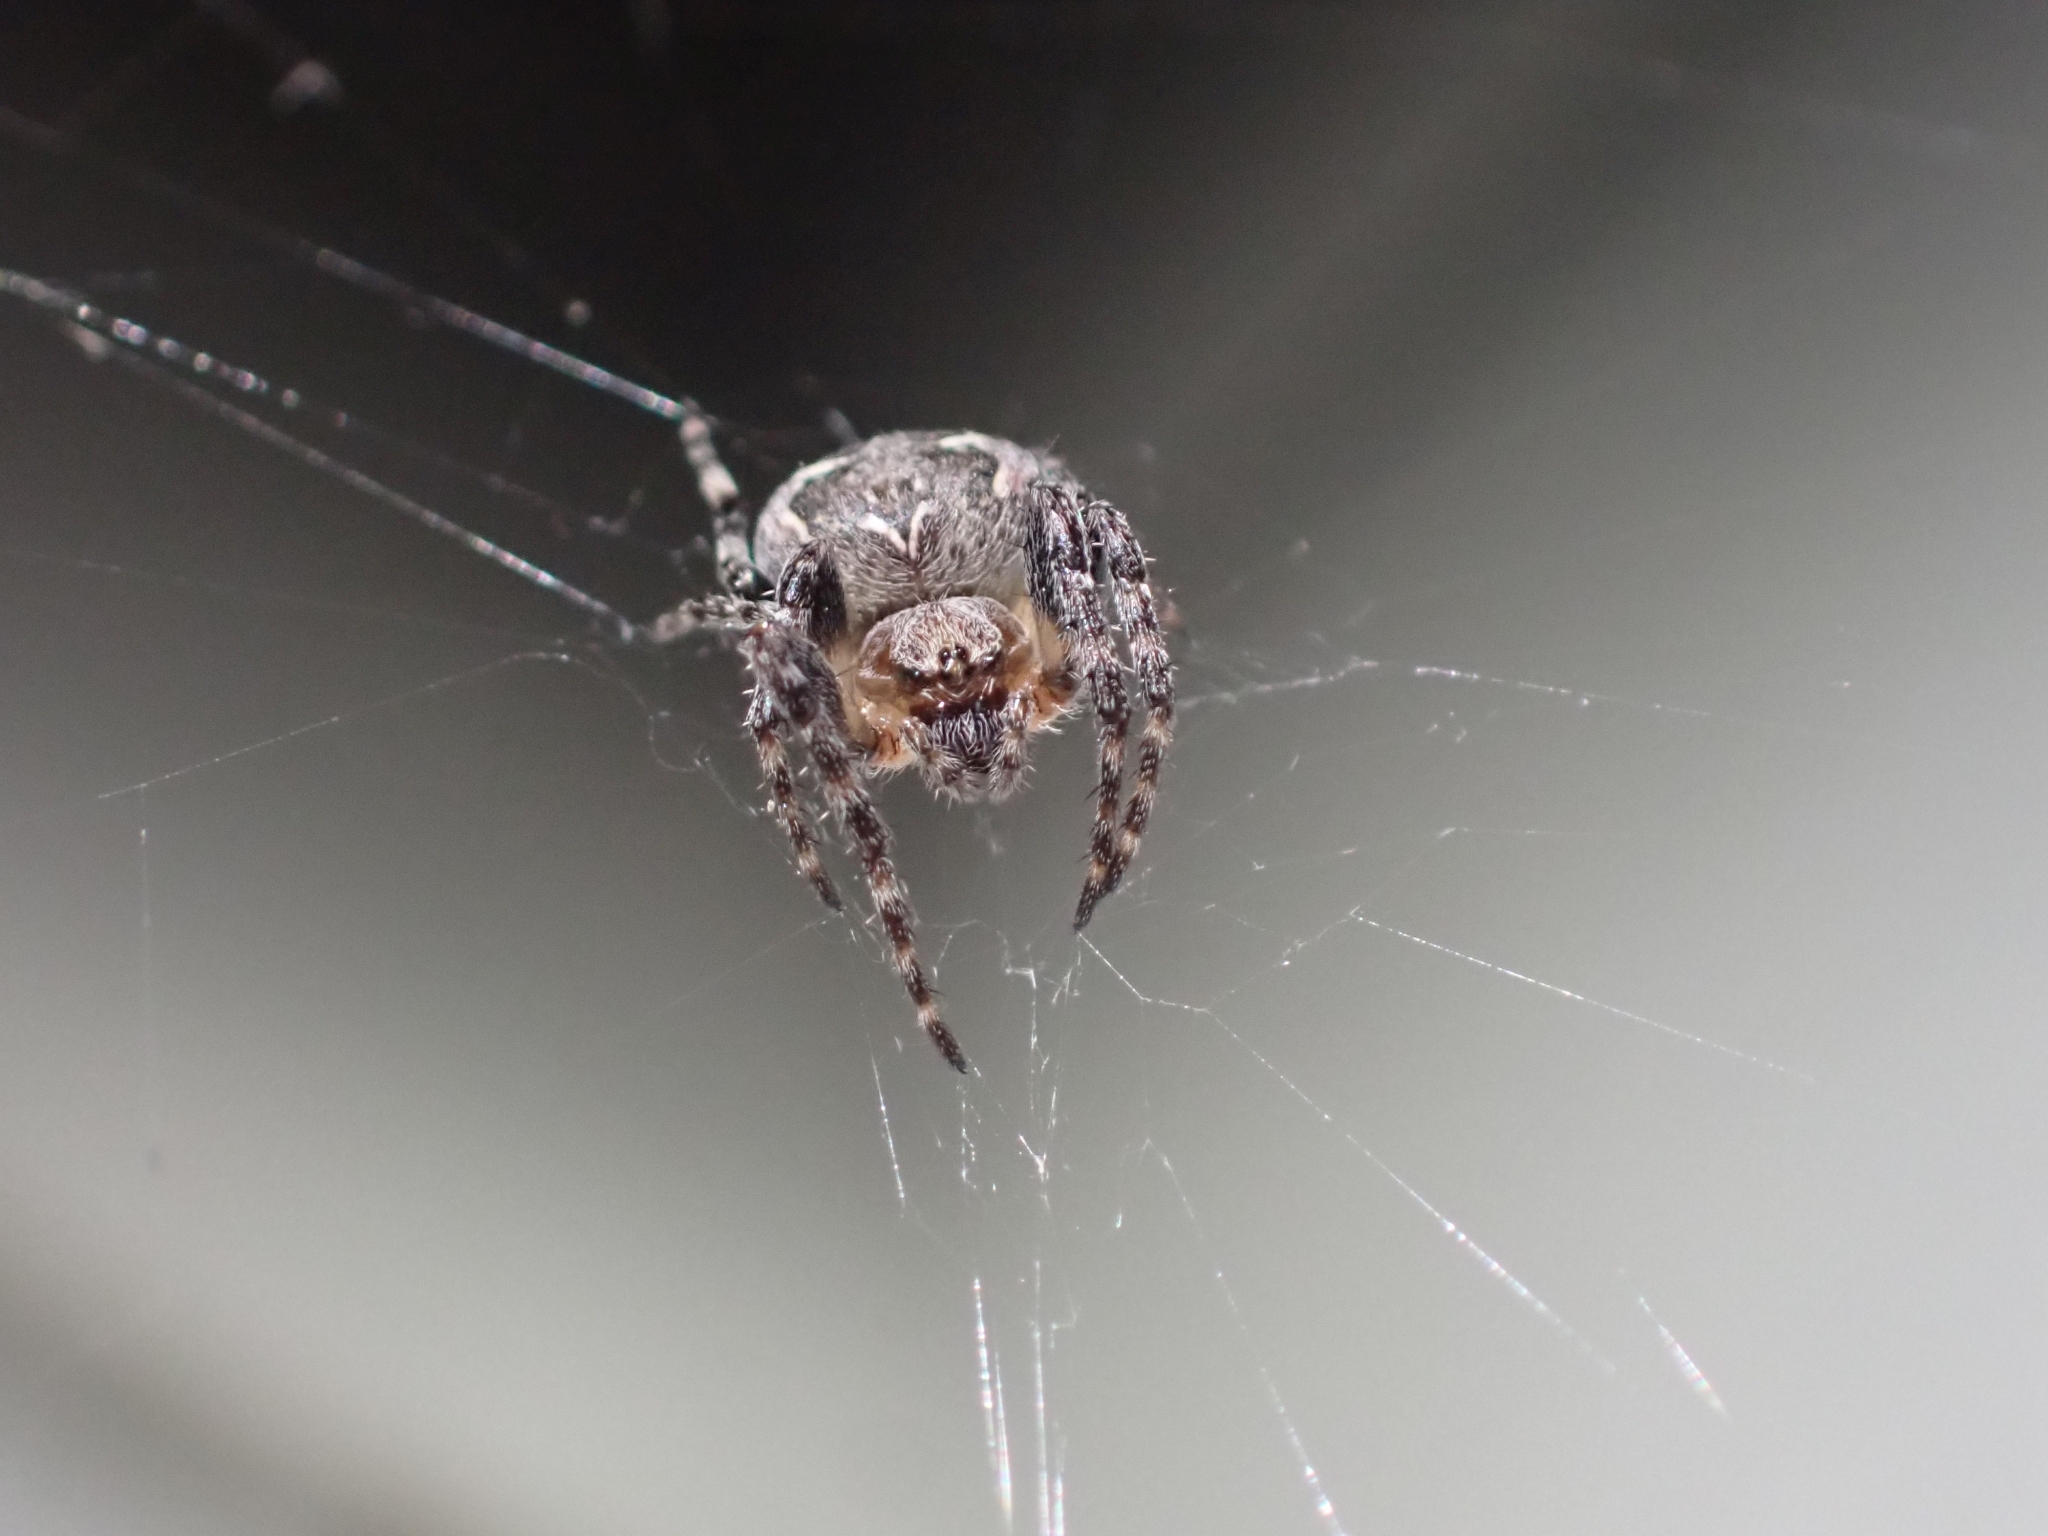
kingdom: Animalia
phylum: Arthropoda
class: Arachnida
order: Araneae
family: Araneidae
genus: Larinioides
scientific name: Larinioides patagiatus
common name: Ornamental orbweaver
